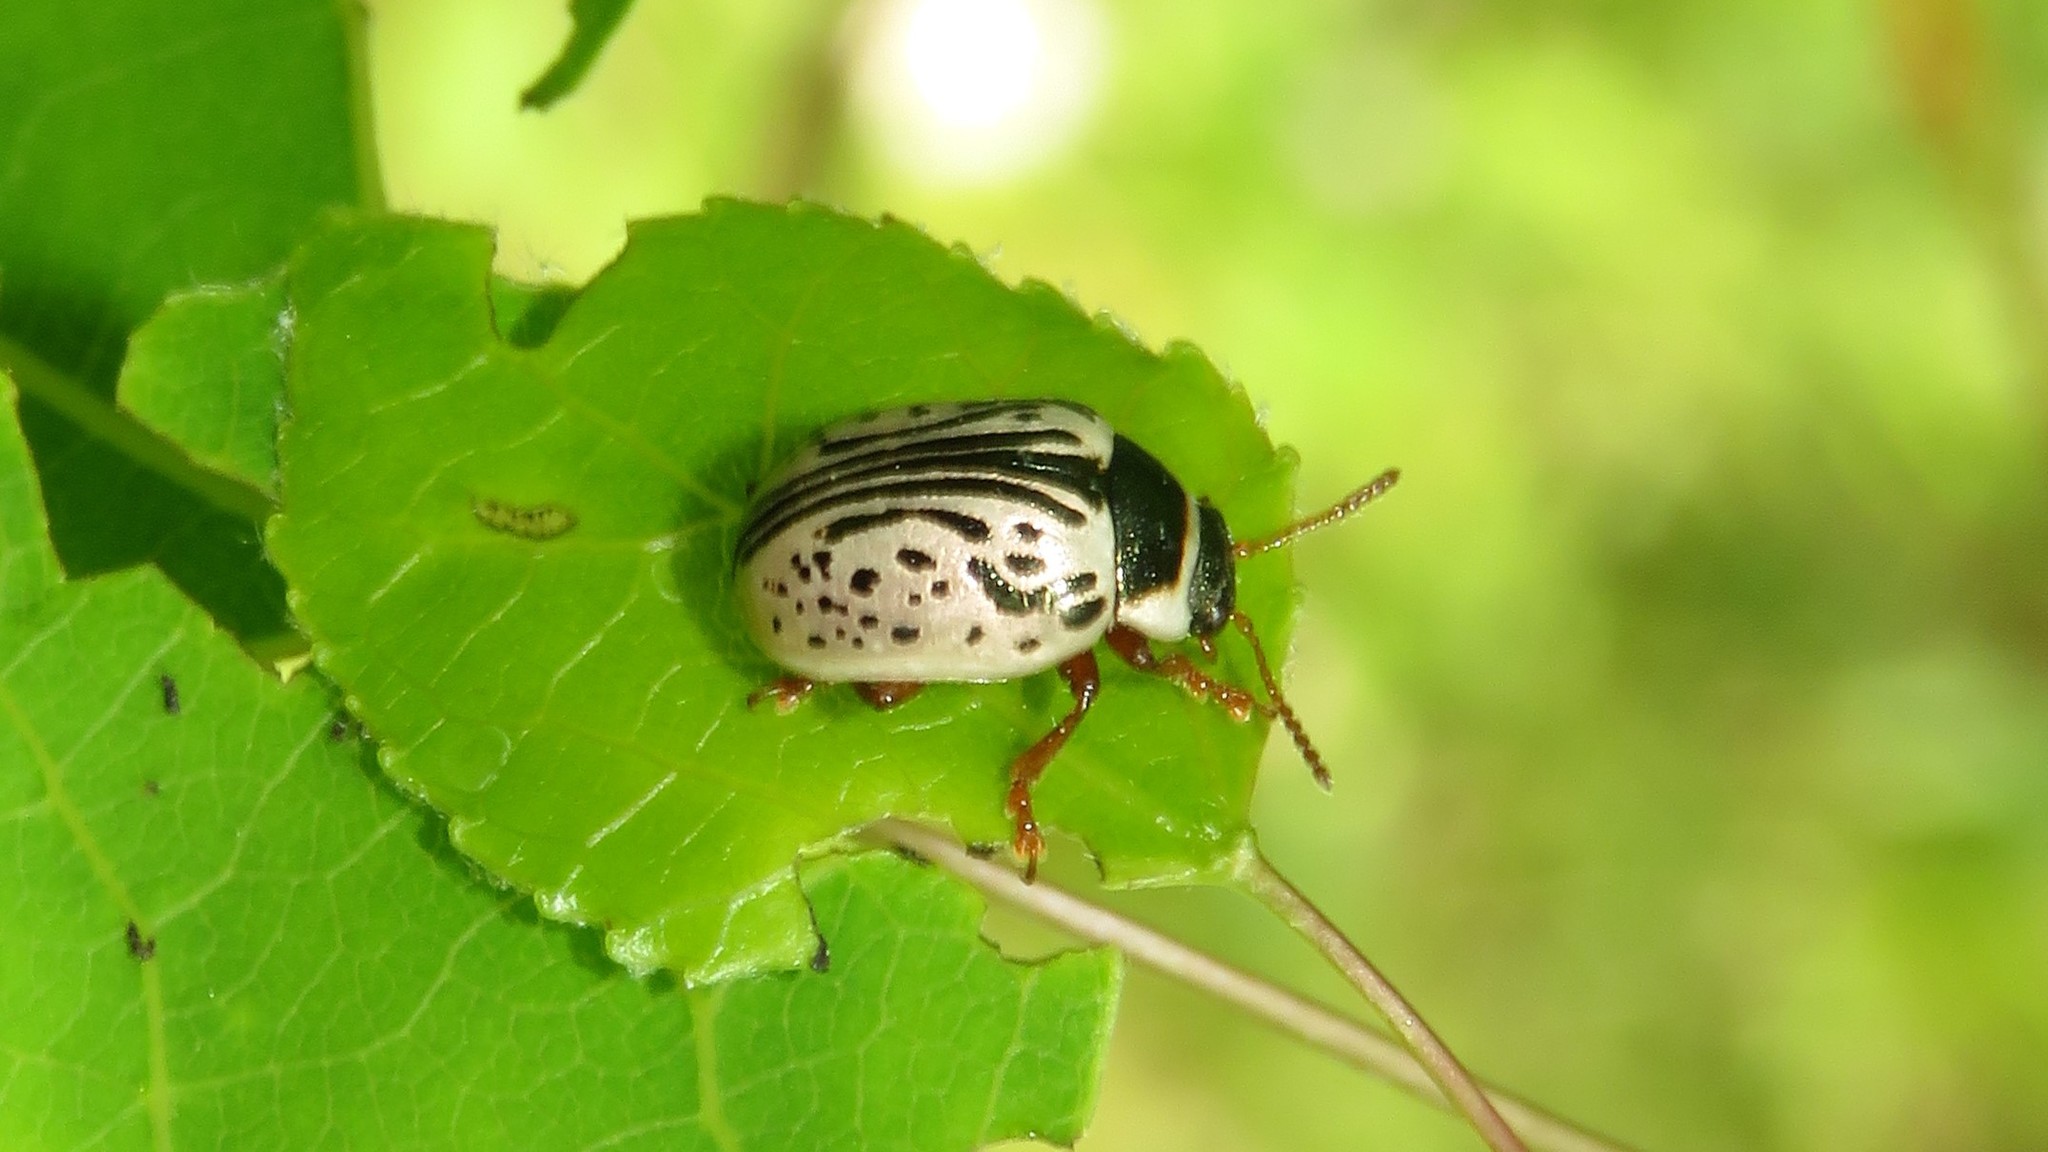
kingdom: Animalia
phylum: Arthropoda
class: Insecta
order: Coleoptera
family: Chrysomelidae
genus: Calligrapha
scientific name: Calligrapha multipunctata
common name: Common willow calligrapher beetle
